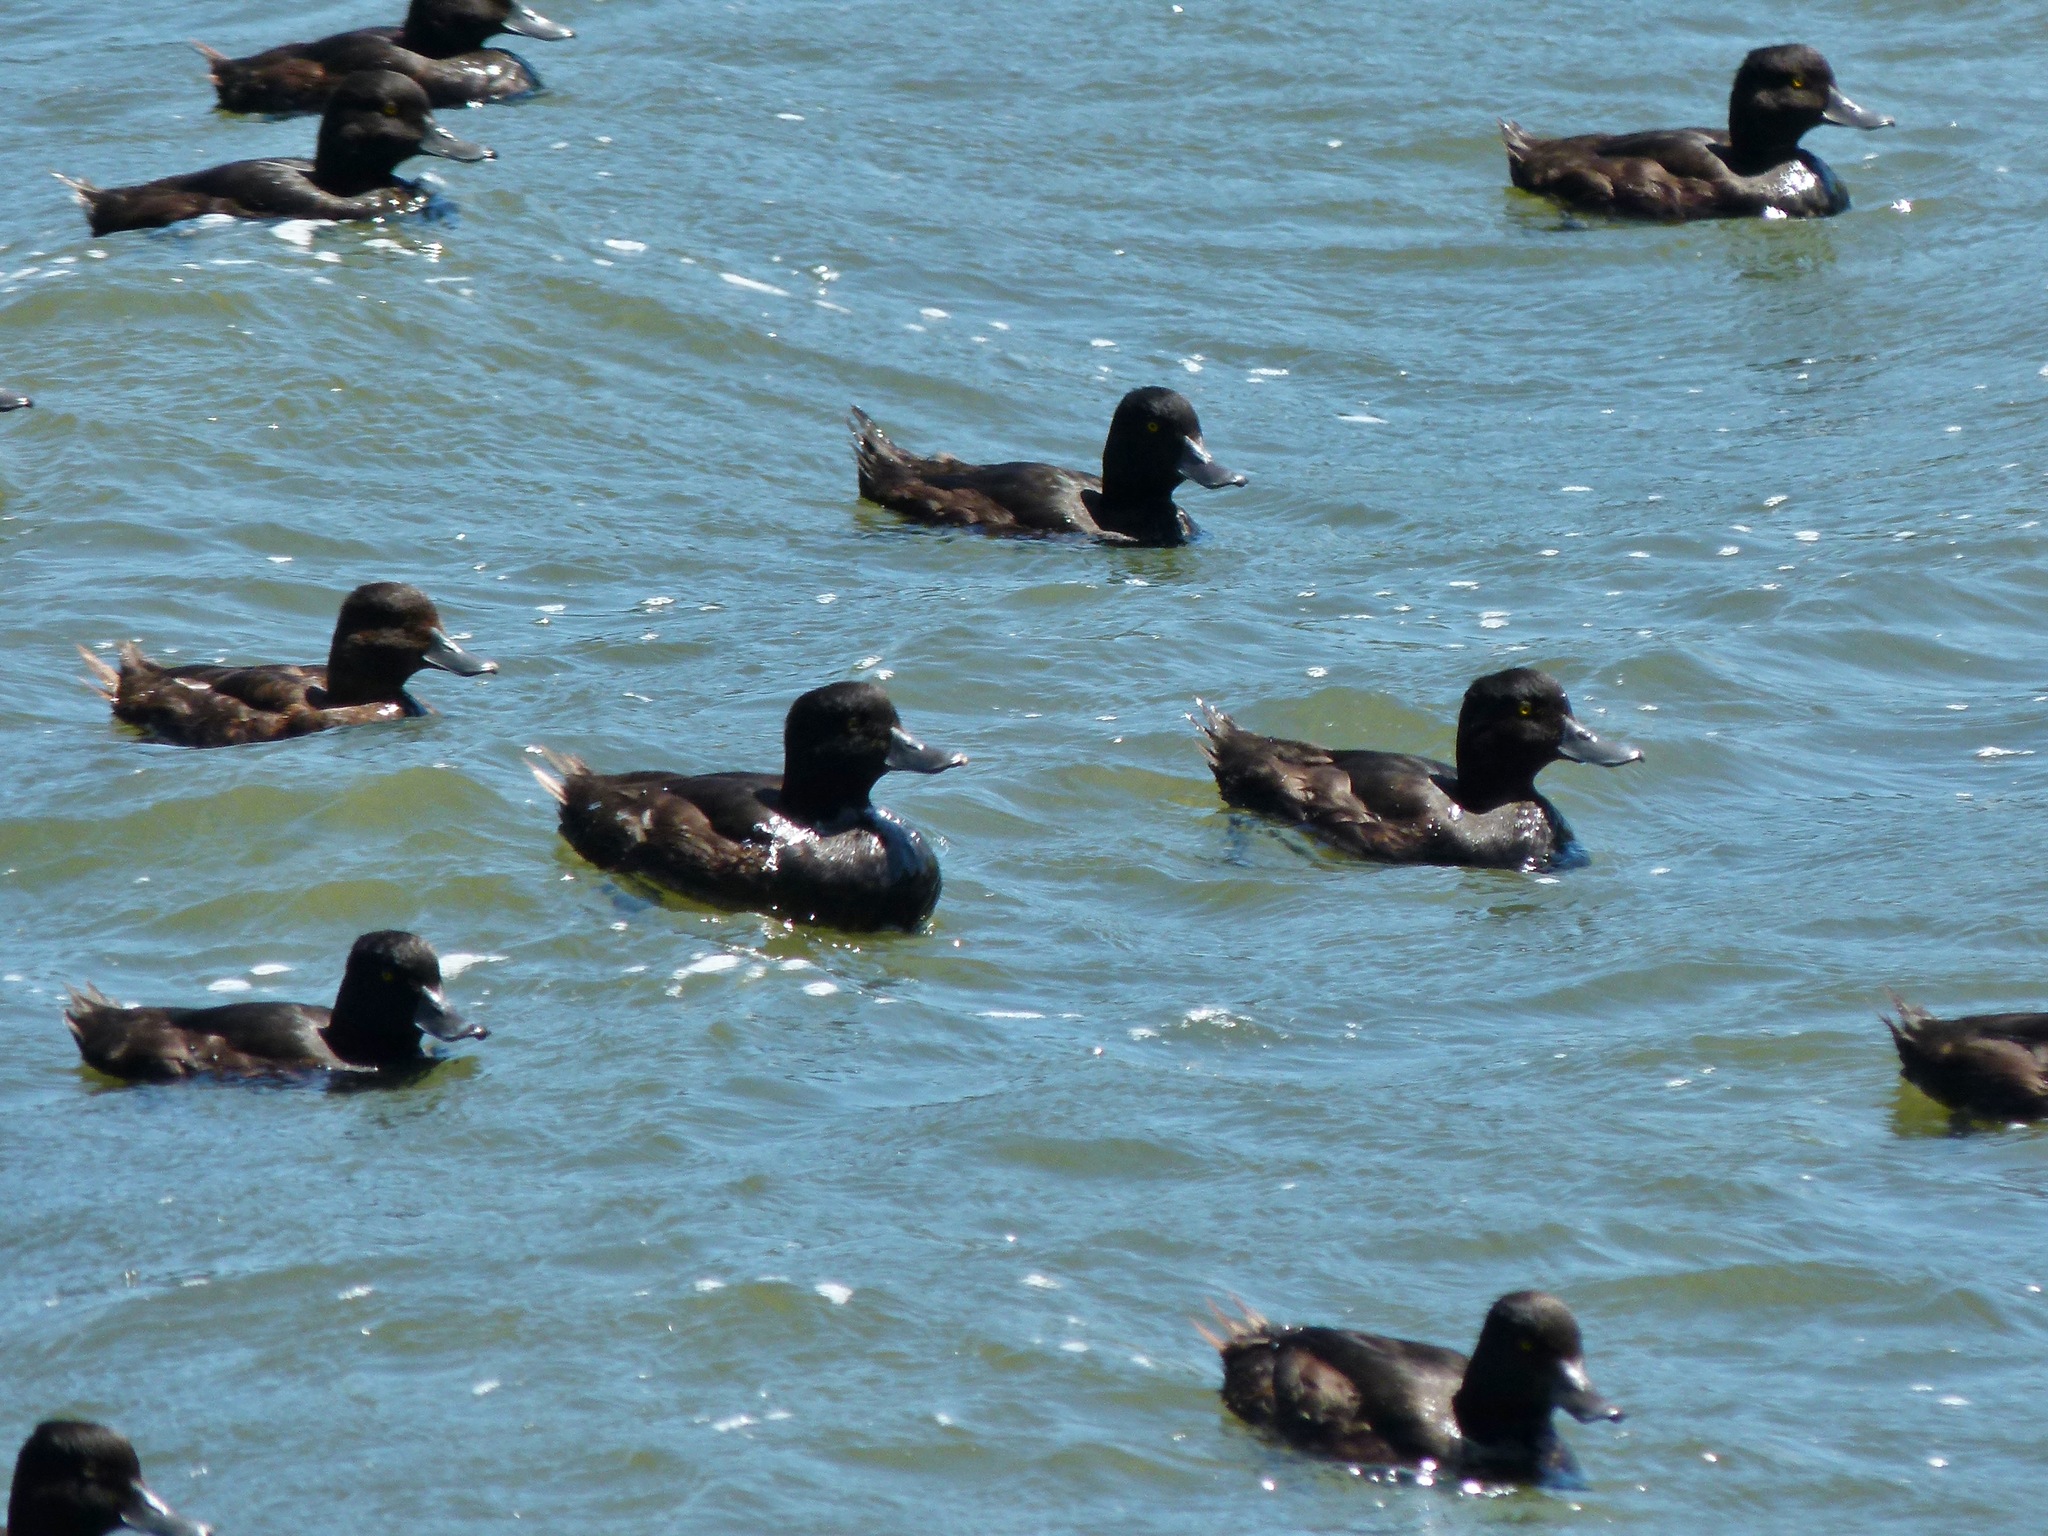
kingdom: Animalia
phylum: Chordata
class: Aves
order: Anseriformes
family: Anatidae
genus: Aythya
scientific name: Aythya novaeseelandiae
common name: New zealand scaup
